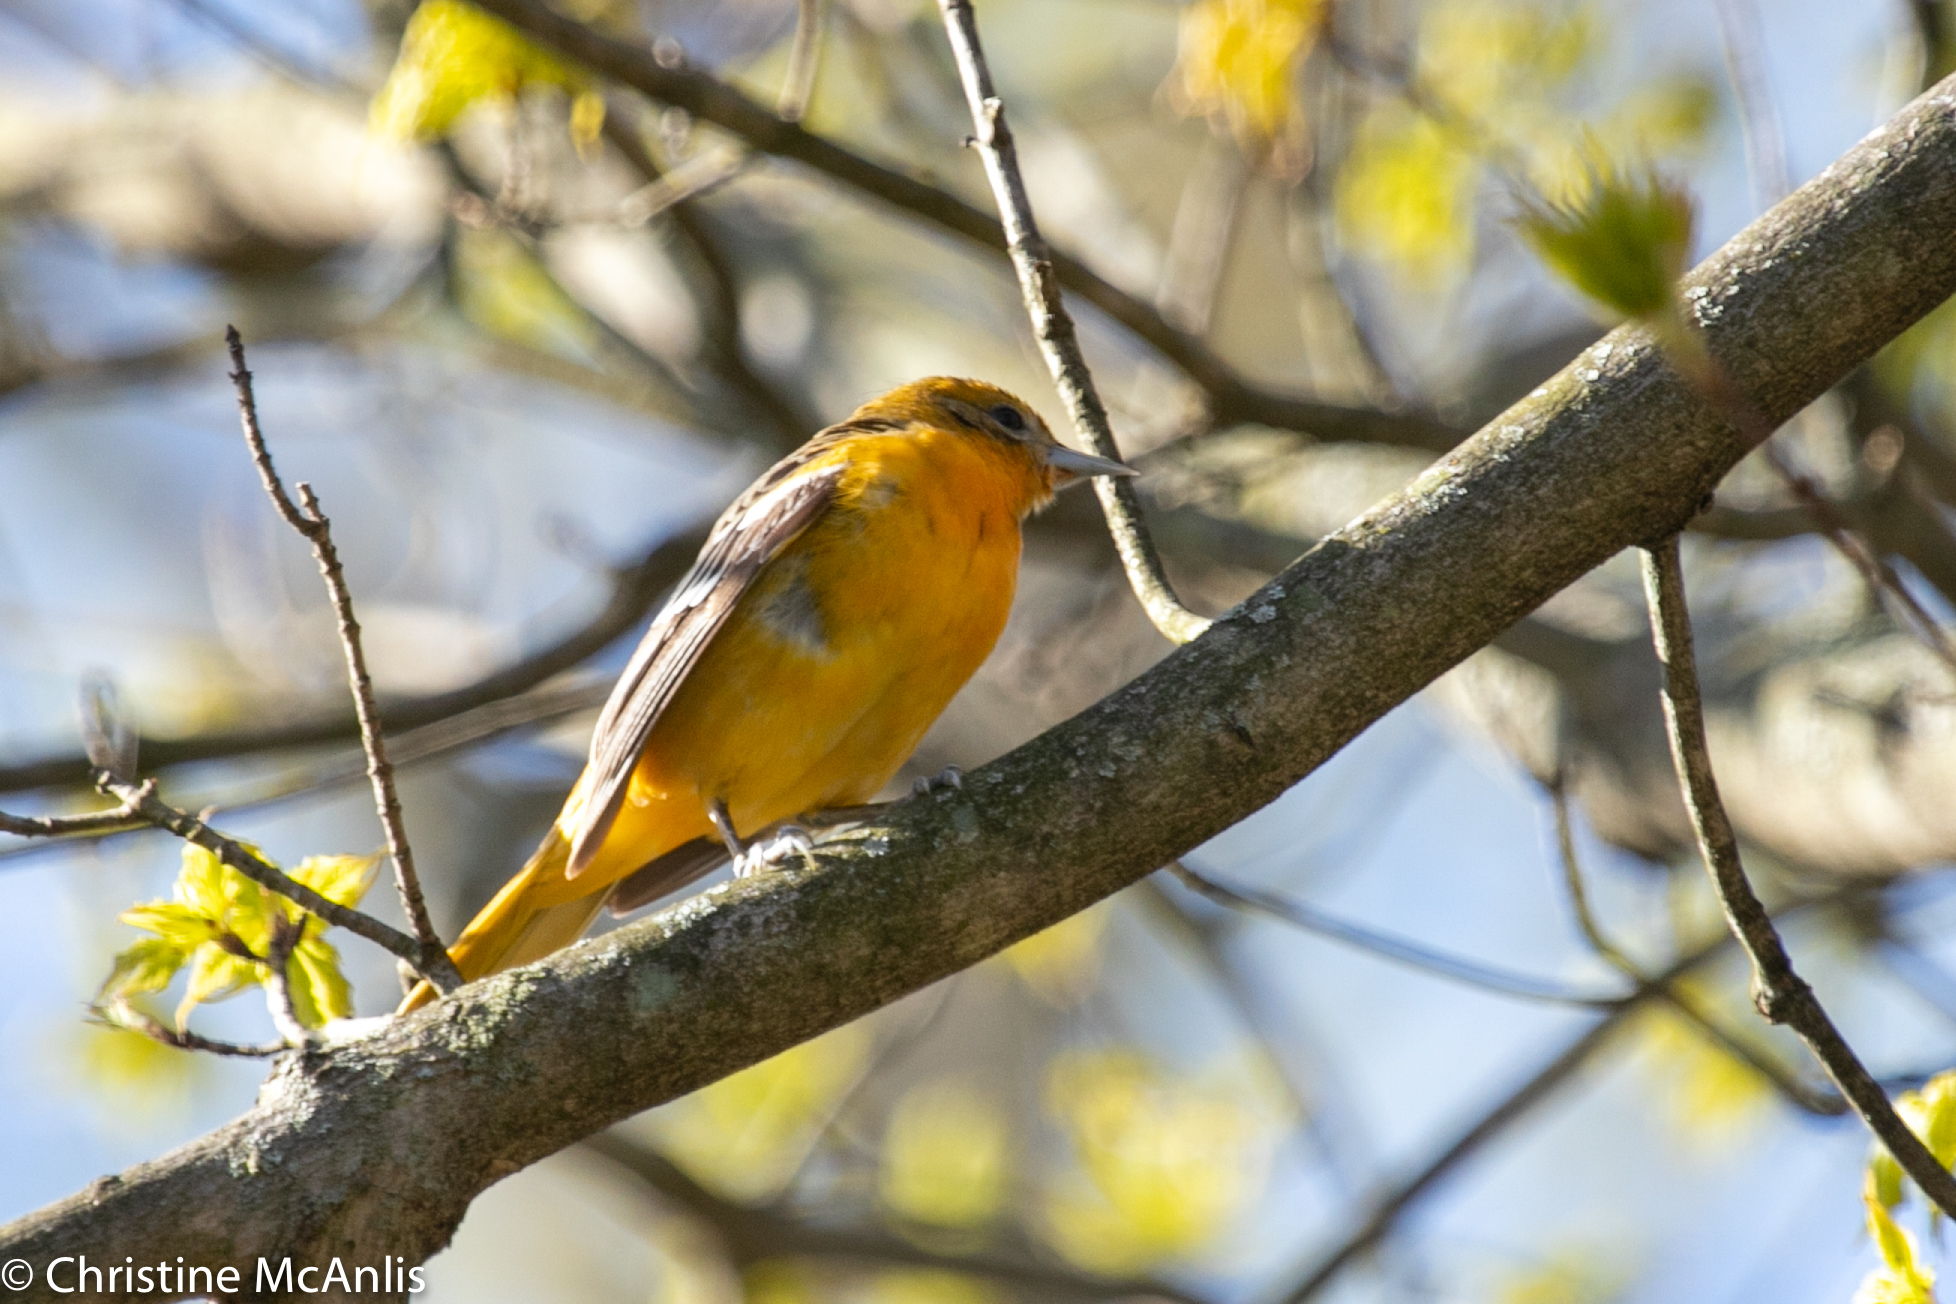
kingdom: Animalia
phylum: Chordata
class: Aves
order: Passeriformes
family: Turdidae
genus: Sialia
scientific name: Sialia sialis
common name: Eastern bluebird
